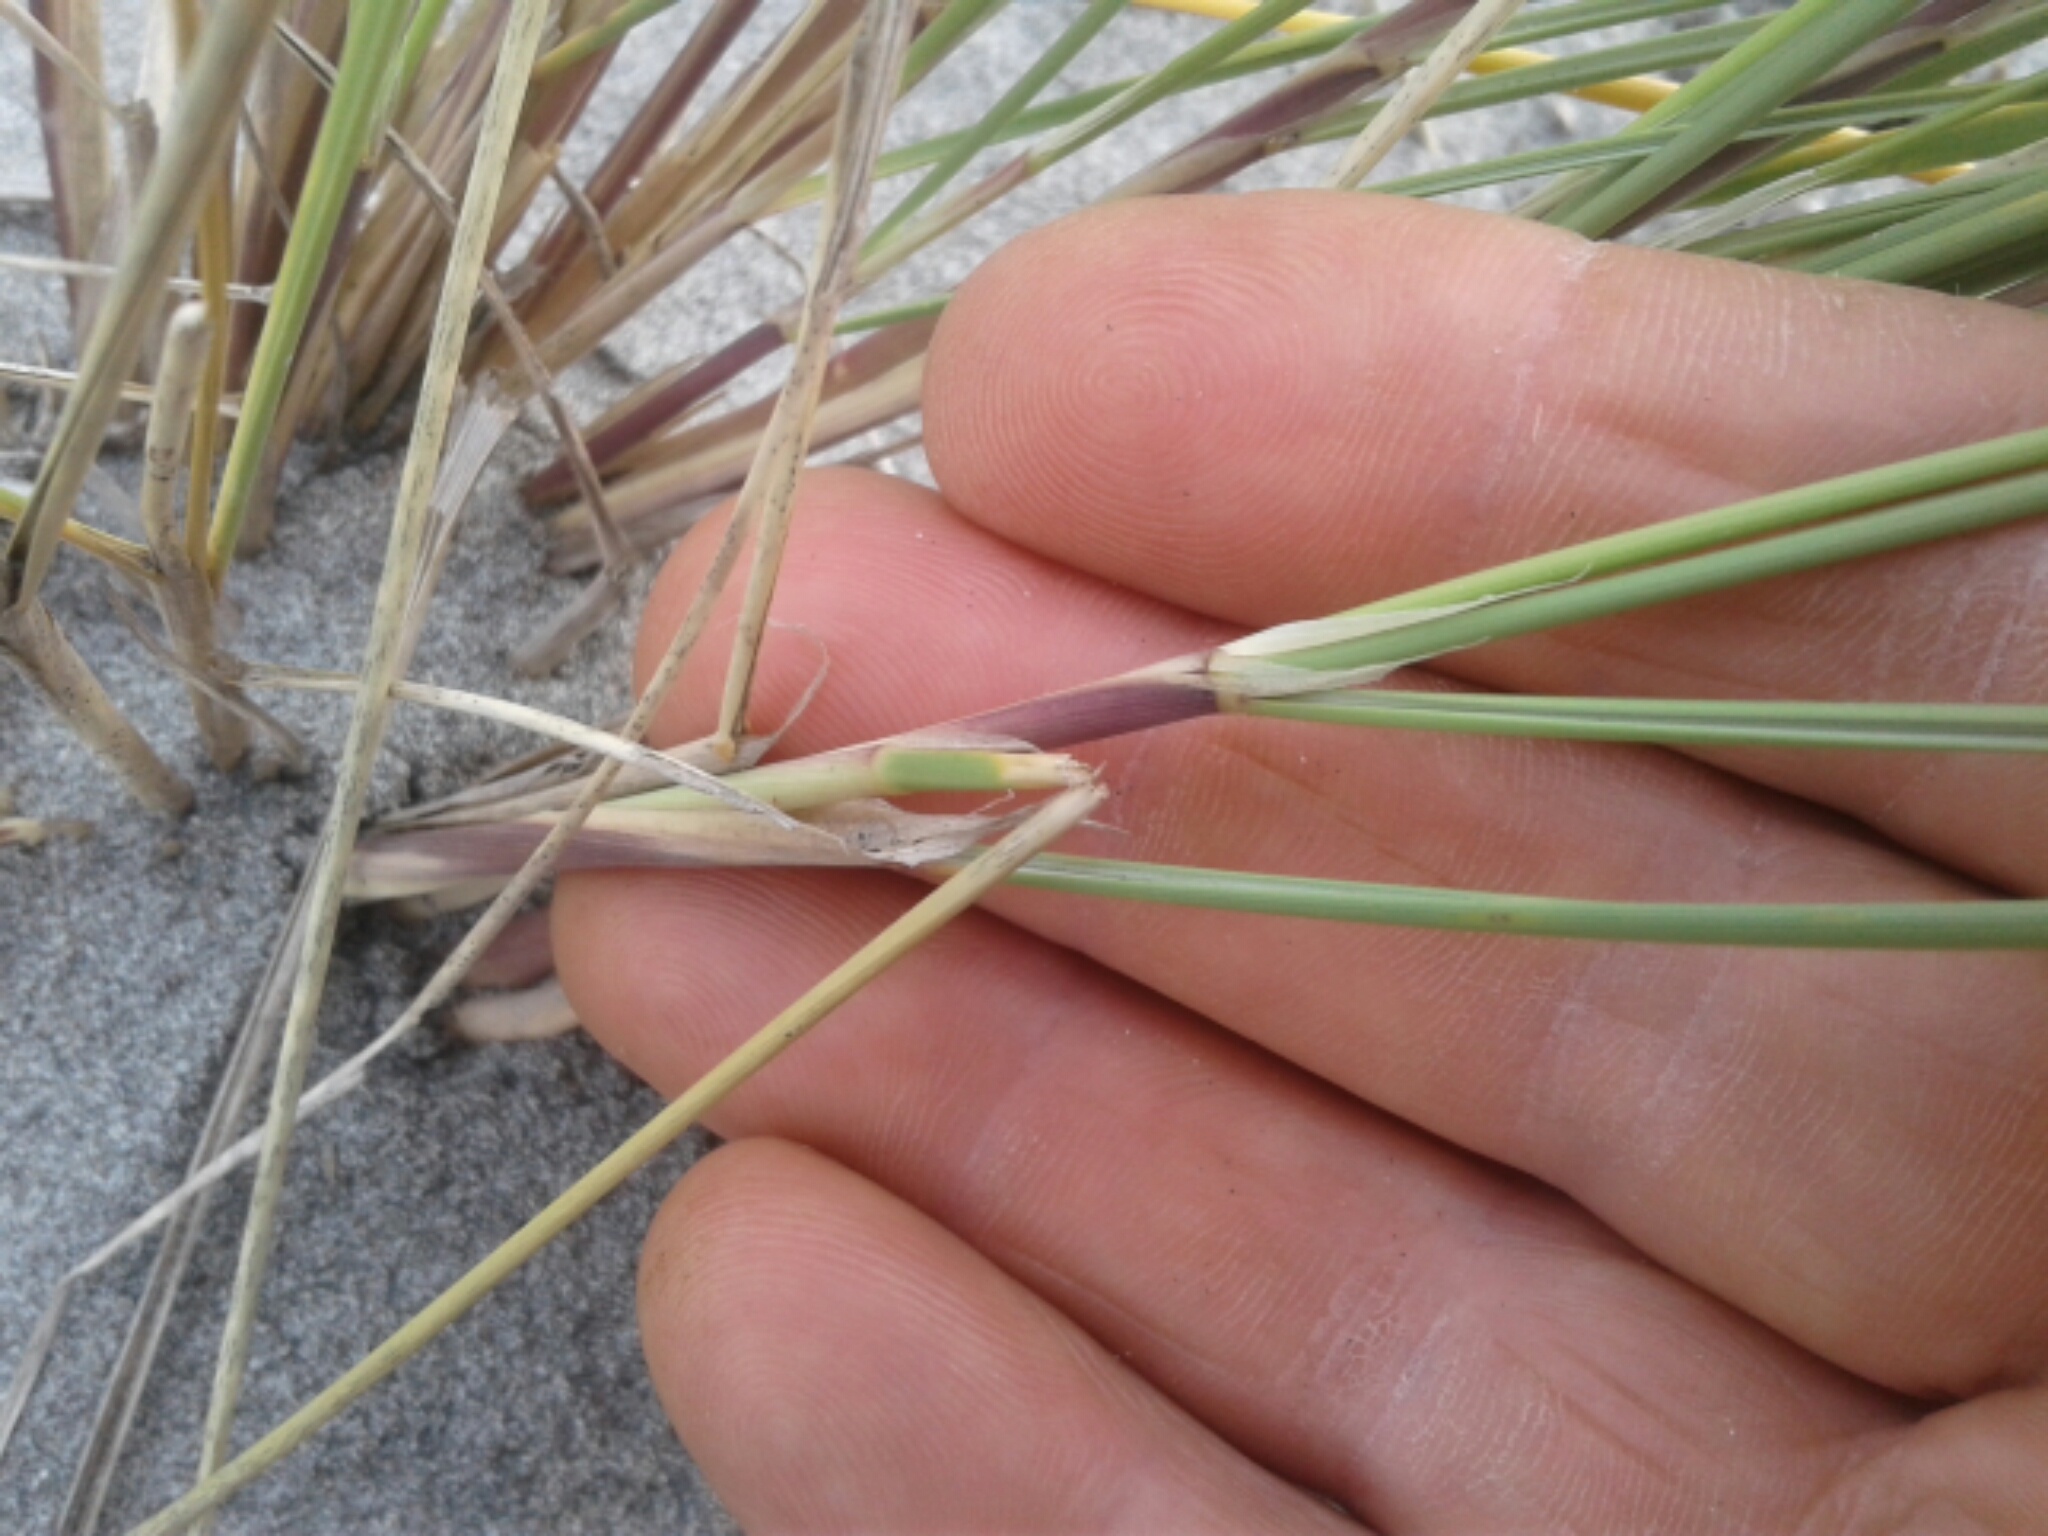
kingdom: Plantae
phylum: Tracheophyta
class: Liliopsida
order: Poales
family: Cyperaceae
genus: Ficinia
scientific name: Ficinia nodosa
